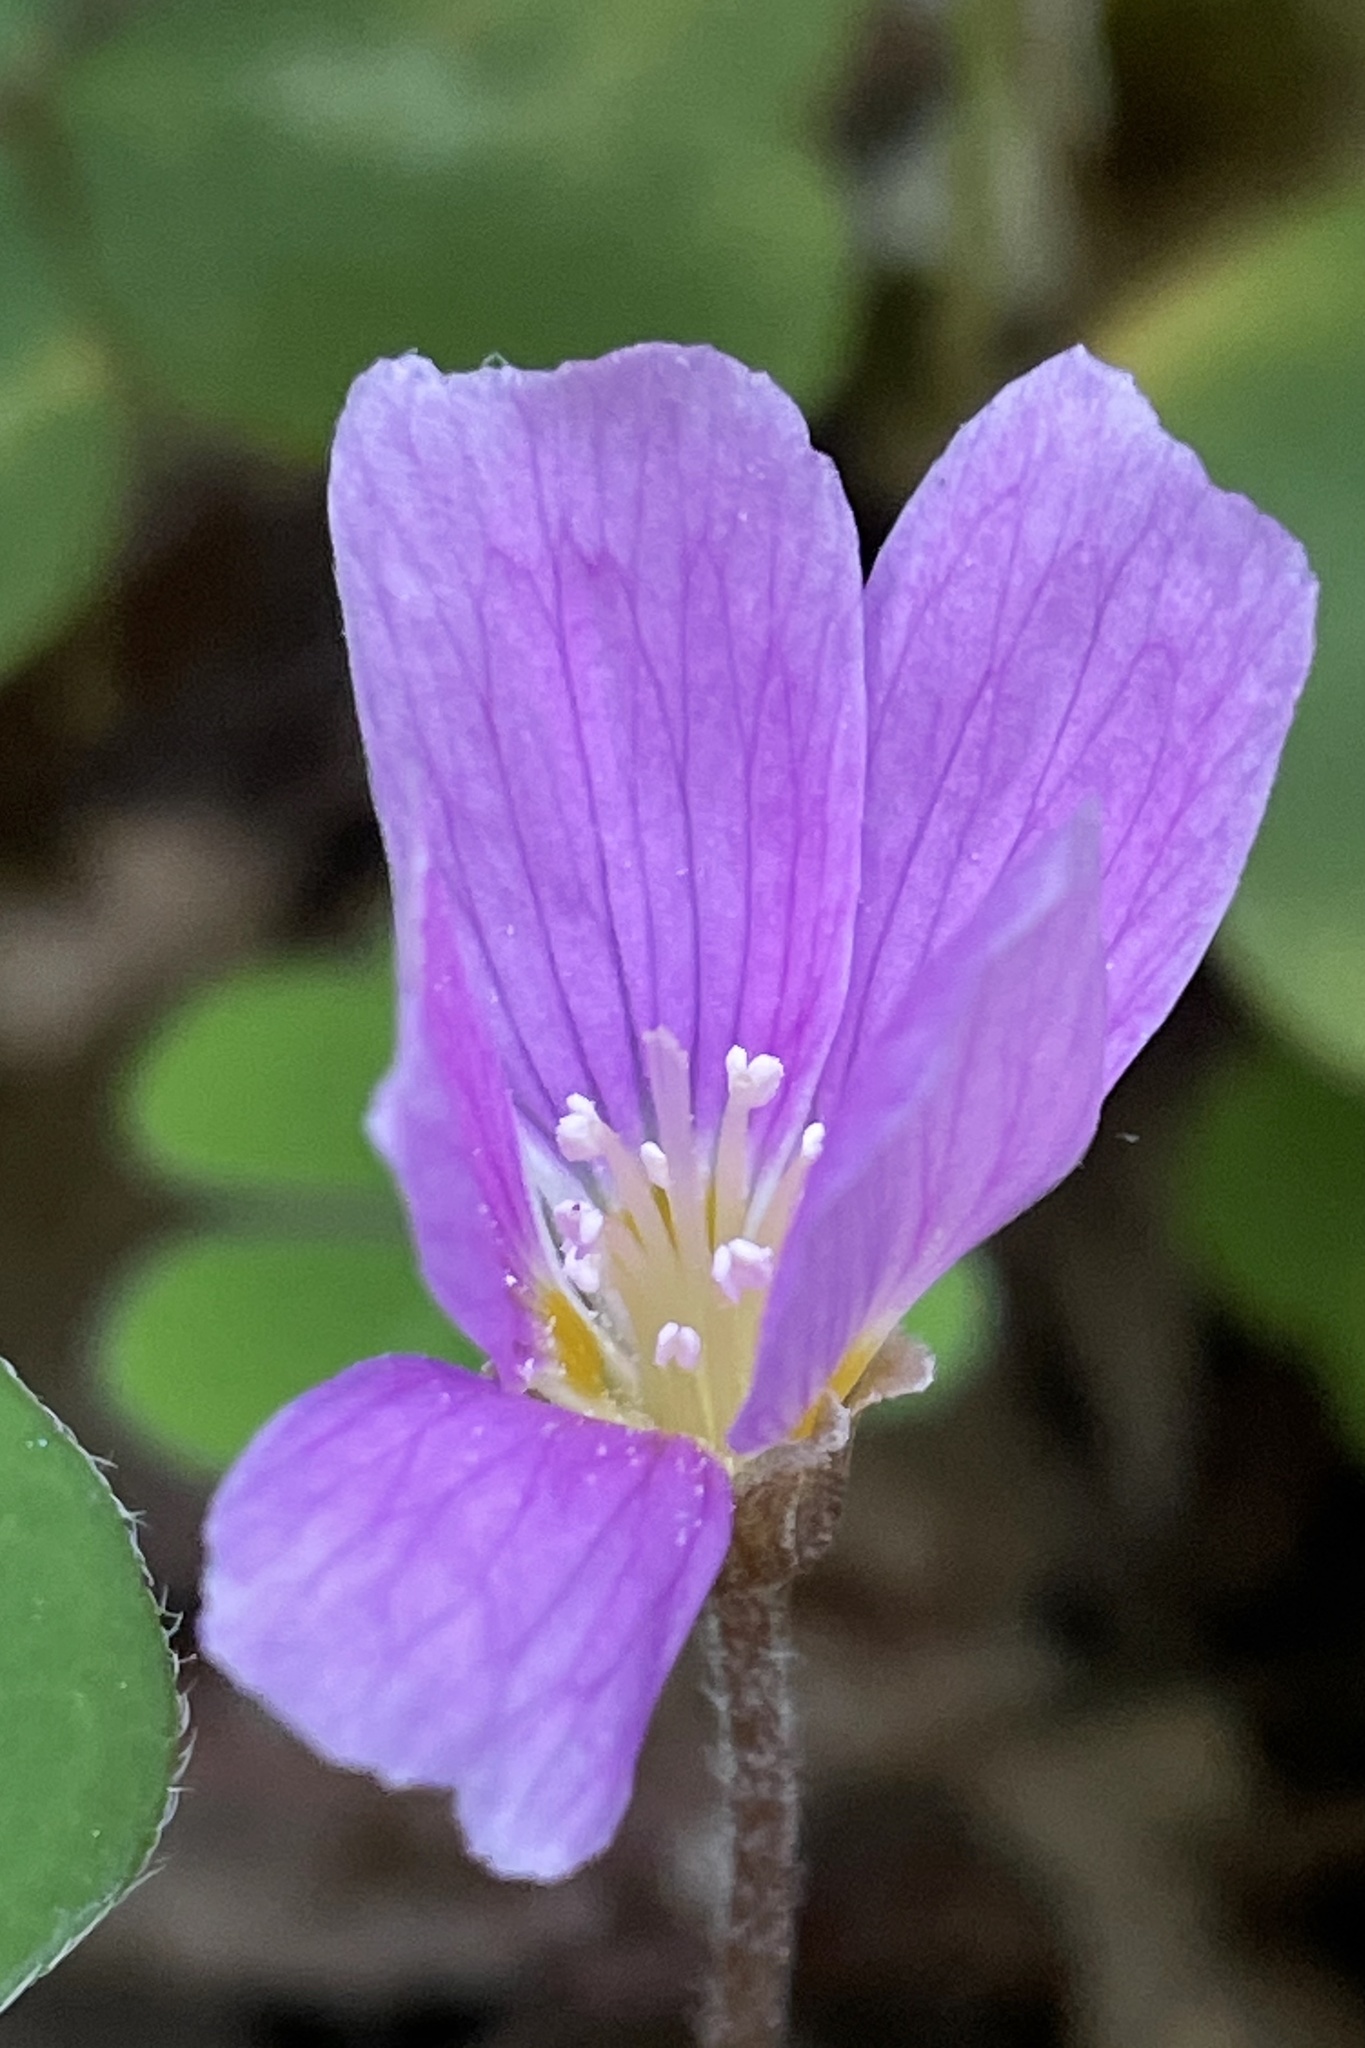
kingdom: Plantae
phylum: Tracheophyta
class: Magnoliopsida
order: Oxalidales
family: Oxalidaceae
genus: Oxalis
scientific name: Oxalis oregana
